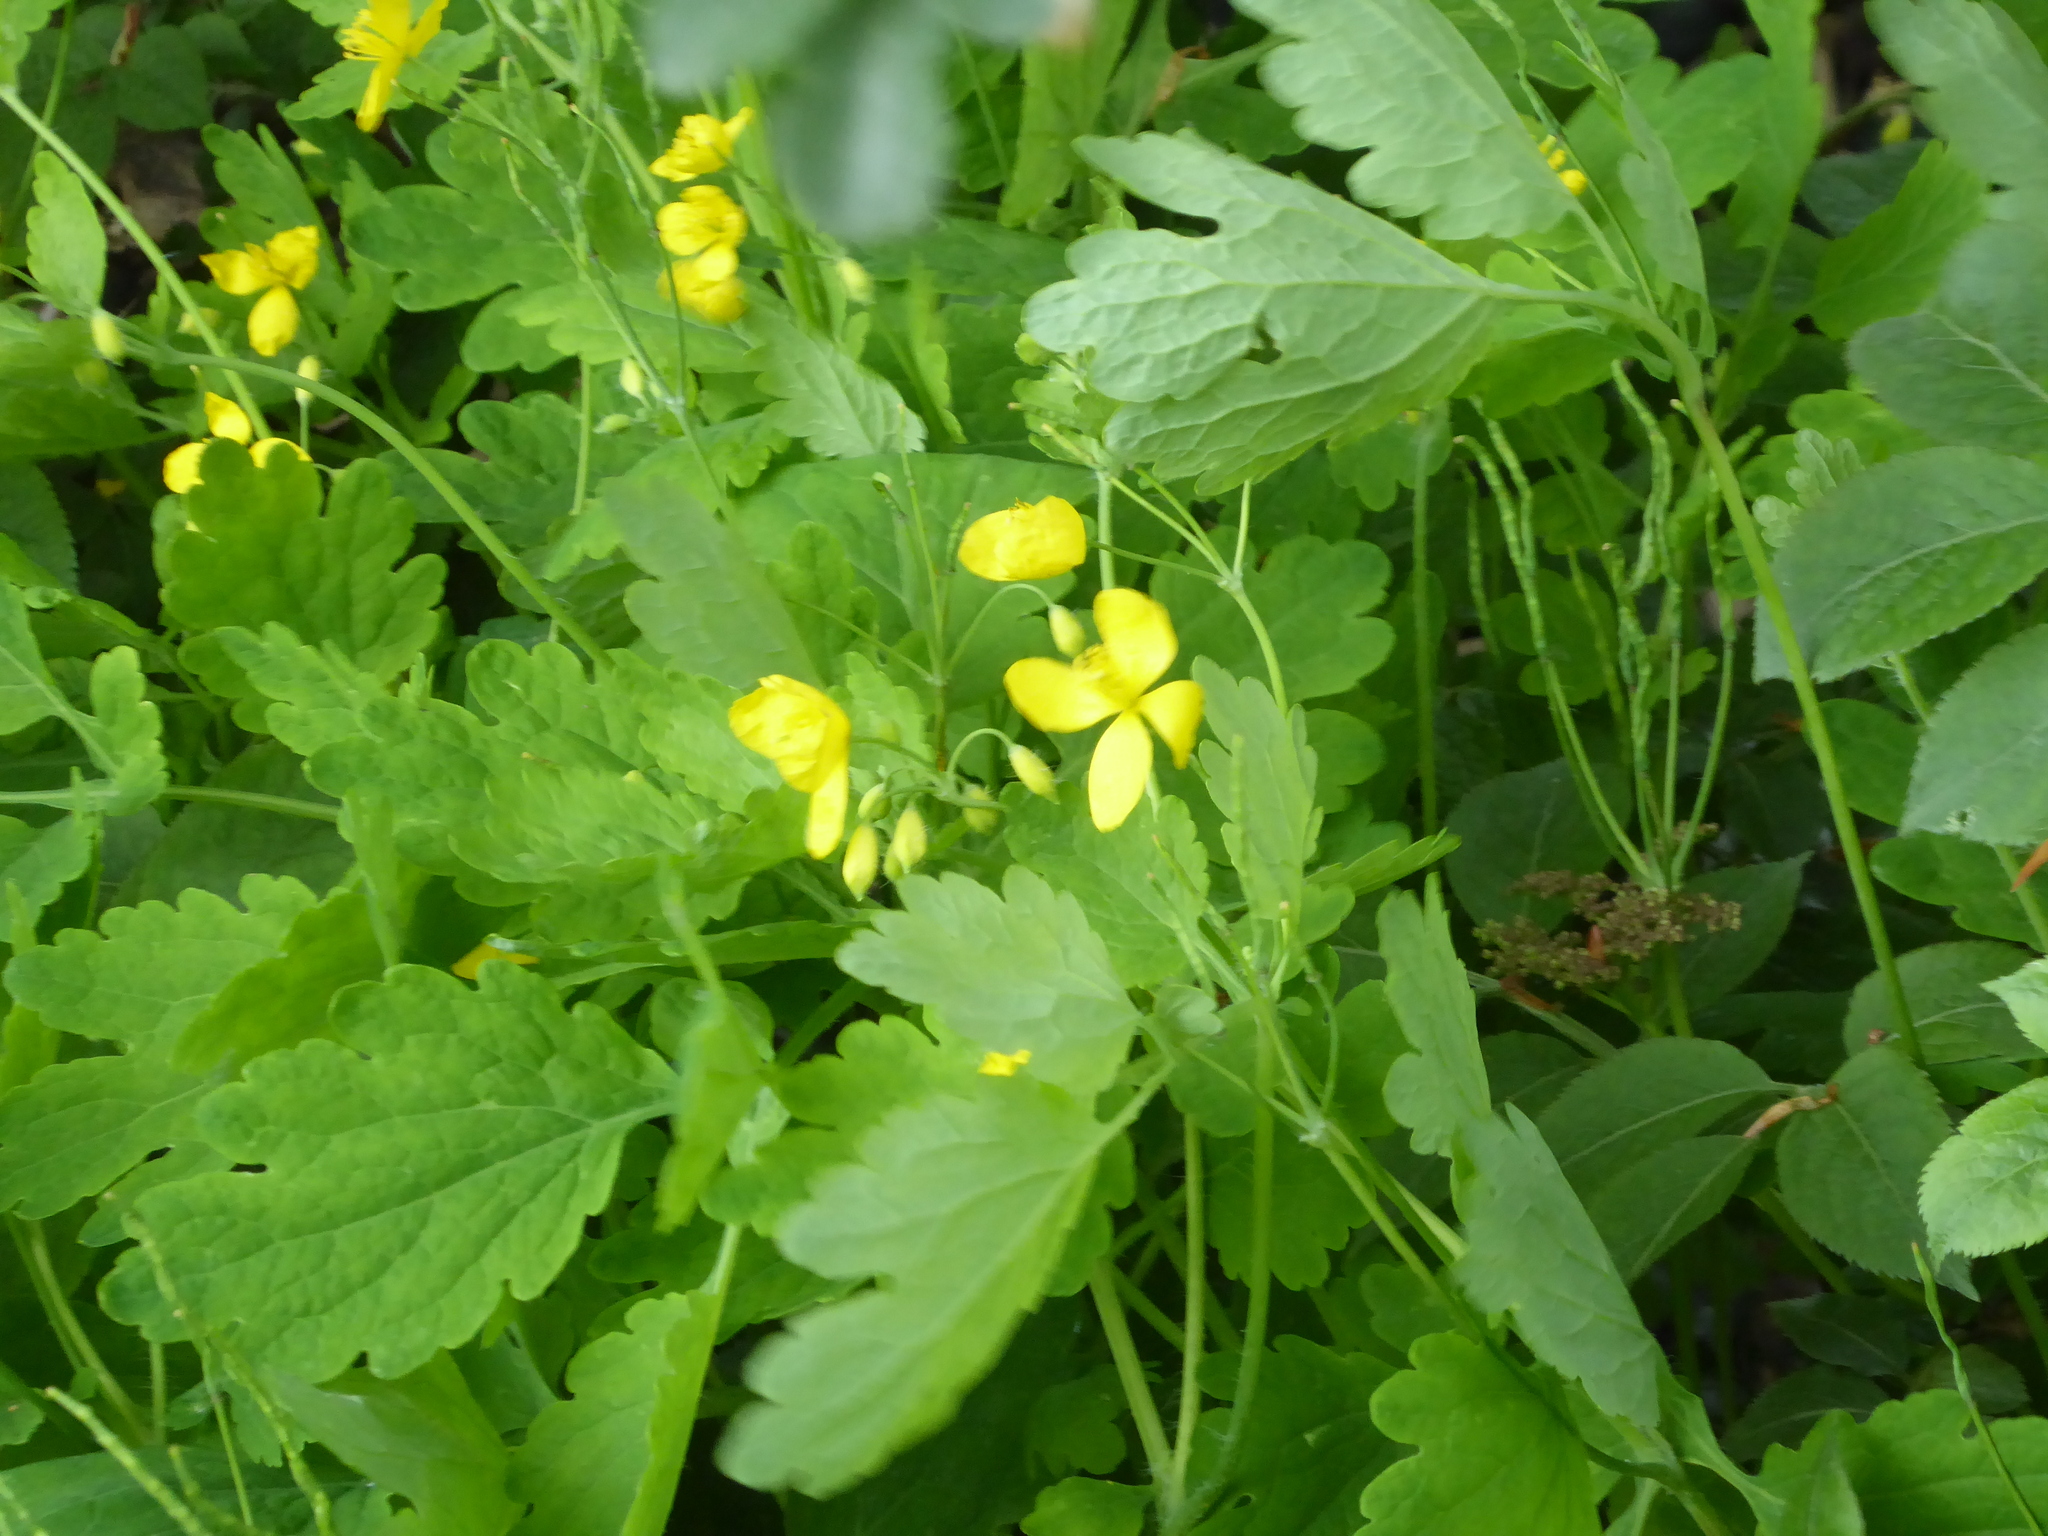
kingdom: Plantae
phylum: Tracheophyta
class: Magnoliopsida
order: Ranunculales
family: Papaveraceae
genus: Chelidonium
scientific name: Chelidonium majus
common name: Greater celandine
